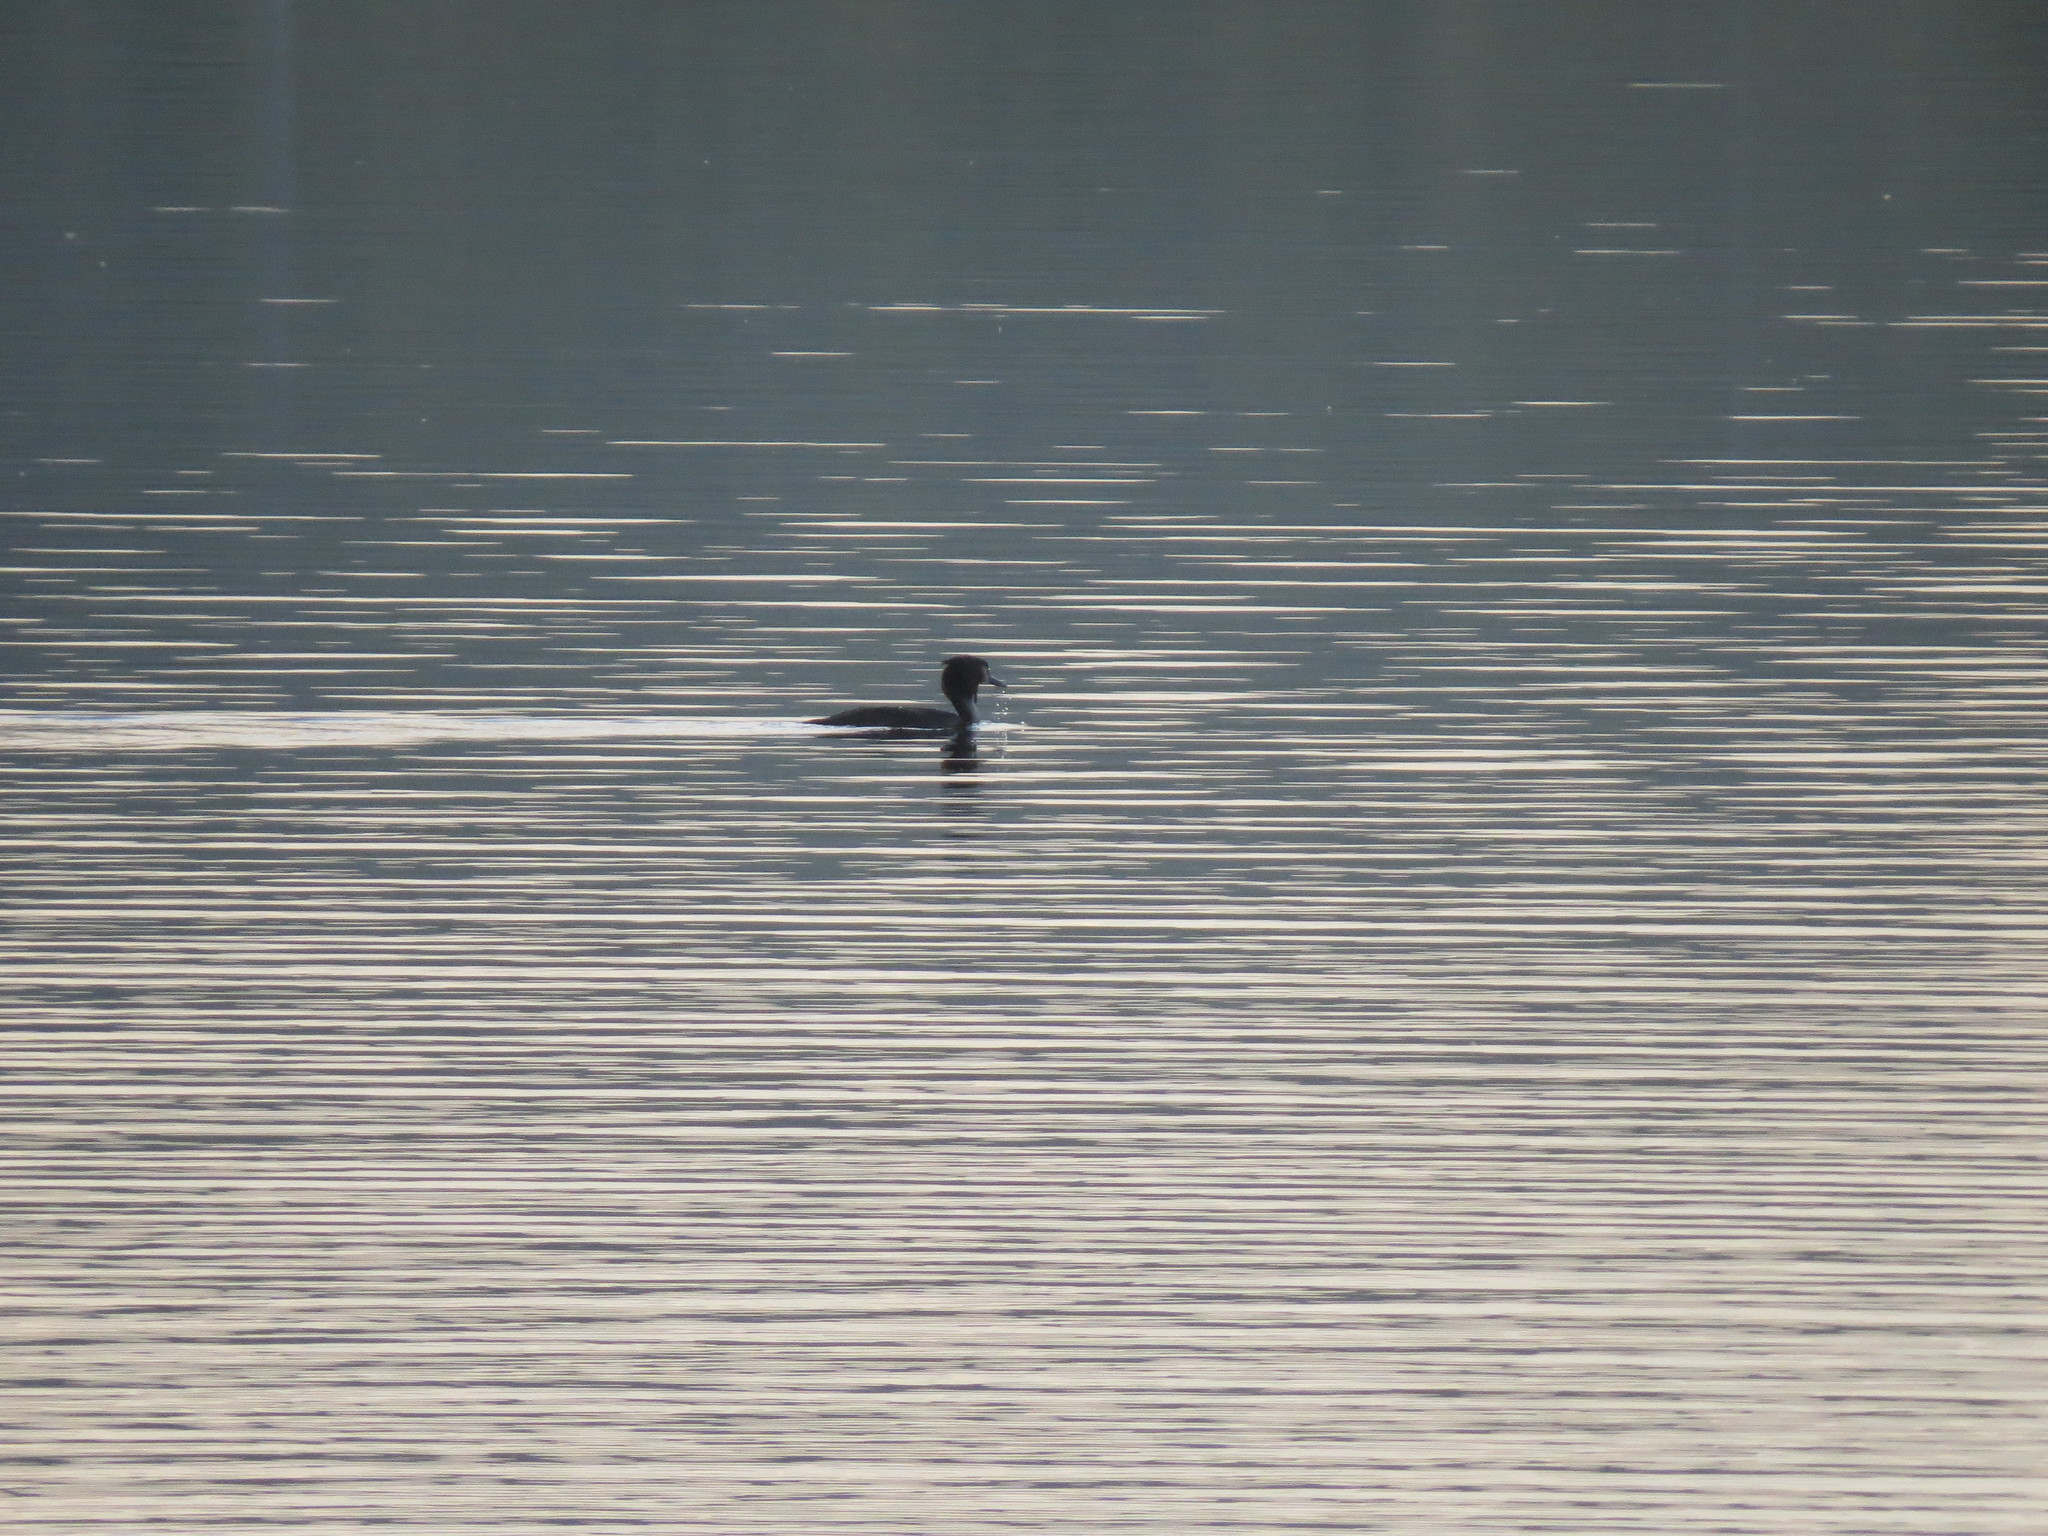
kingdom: Animalia
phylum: Chordata
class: Aves
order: Podicipediformes
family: Podicipedidae
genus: Podiceps
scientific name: Podiceps cristatus
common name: Great crested grebe
